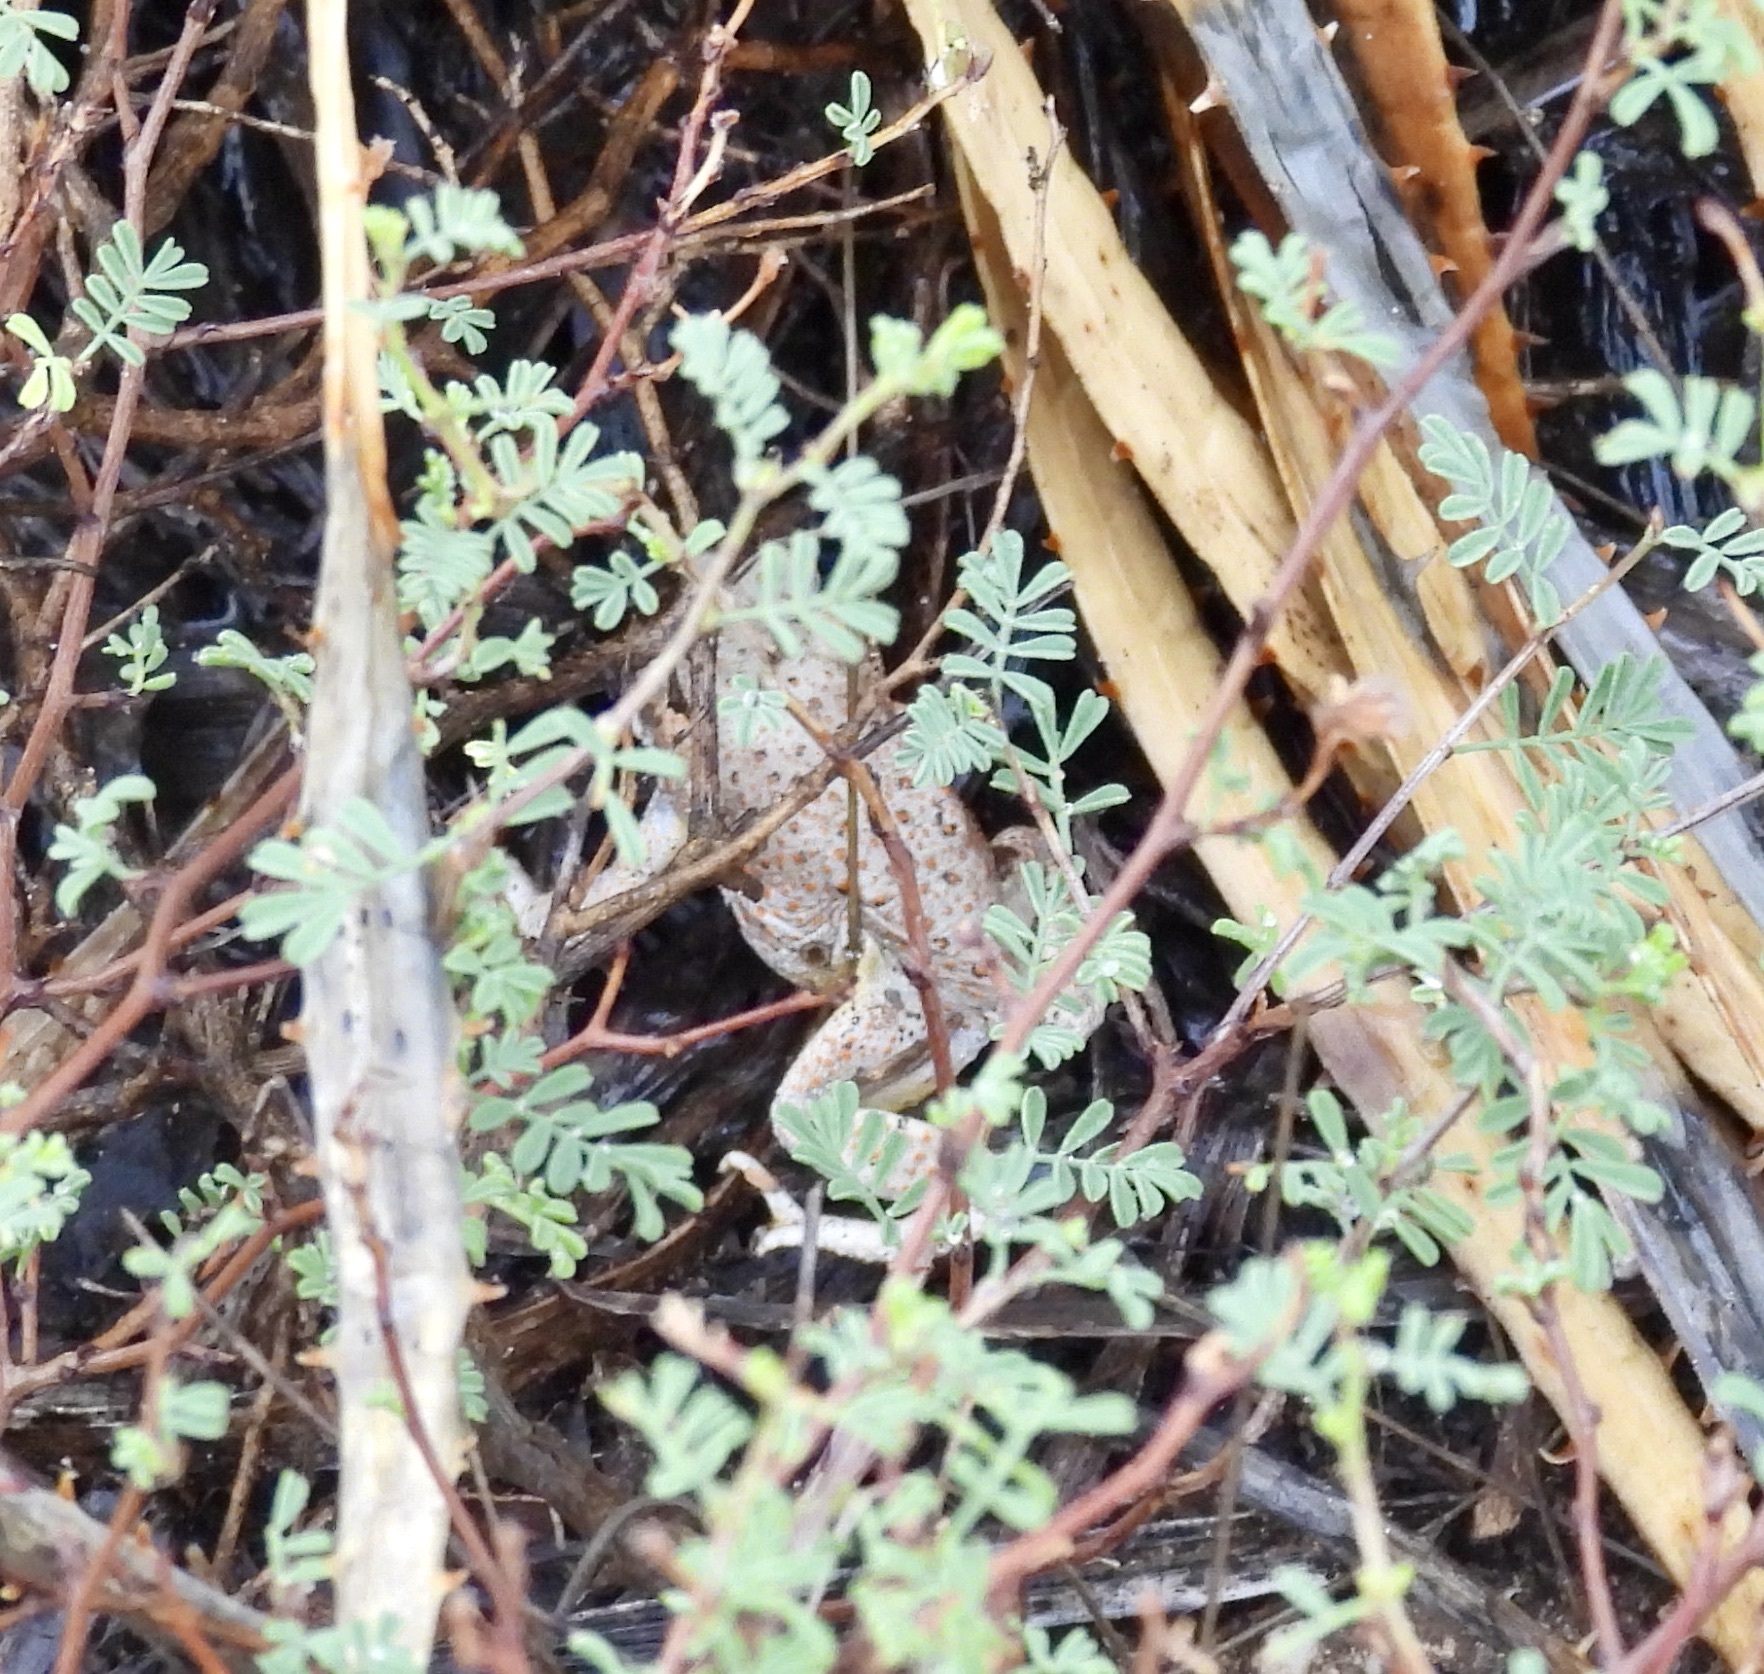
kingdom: Animalia
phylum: Chordata
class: Amphibia
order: Anura
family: Bufonidae
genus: Anaxyrus
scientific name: Anaxyrus punctatus
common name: Red-spotted toad
